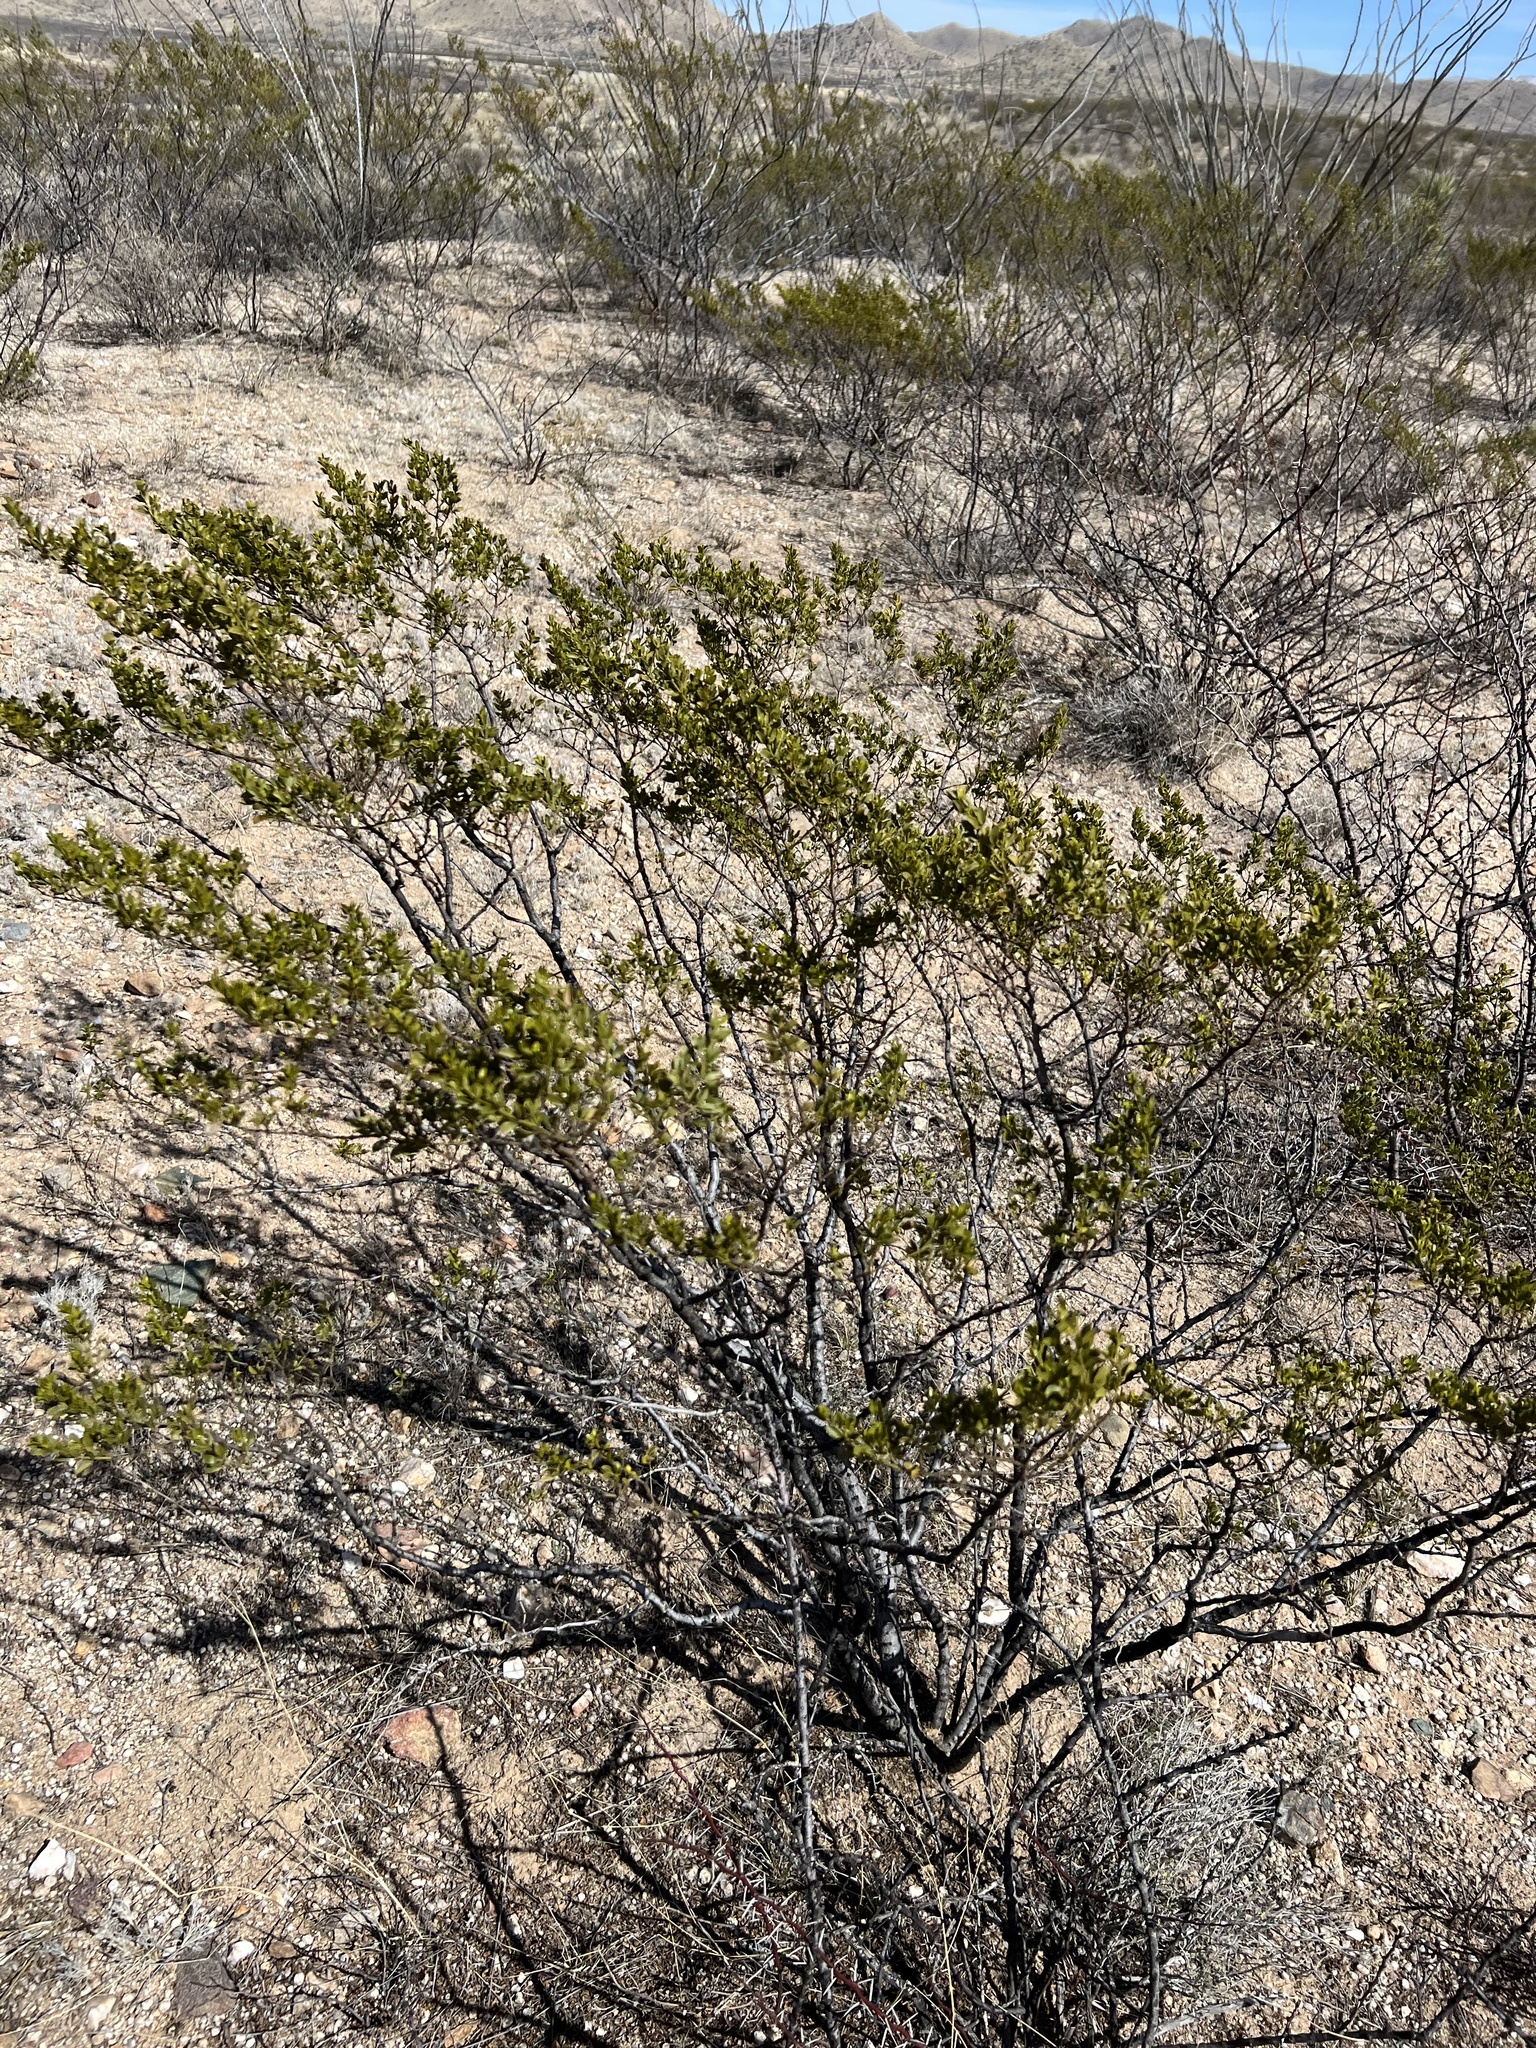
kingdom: Plantae
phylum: Tracheophyta
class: Magnoliopsida
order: Zygophyllales
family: Zygophyllaceae
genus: Larrea
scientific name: Larrea tridentata
